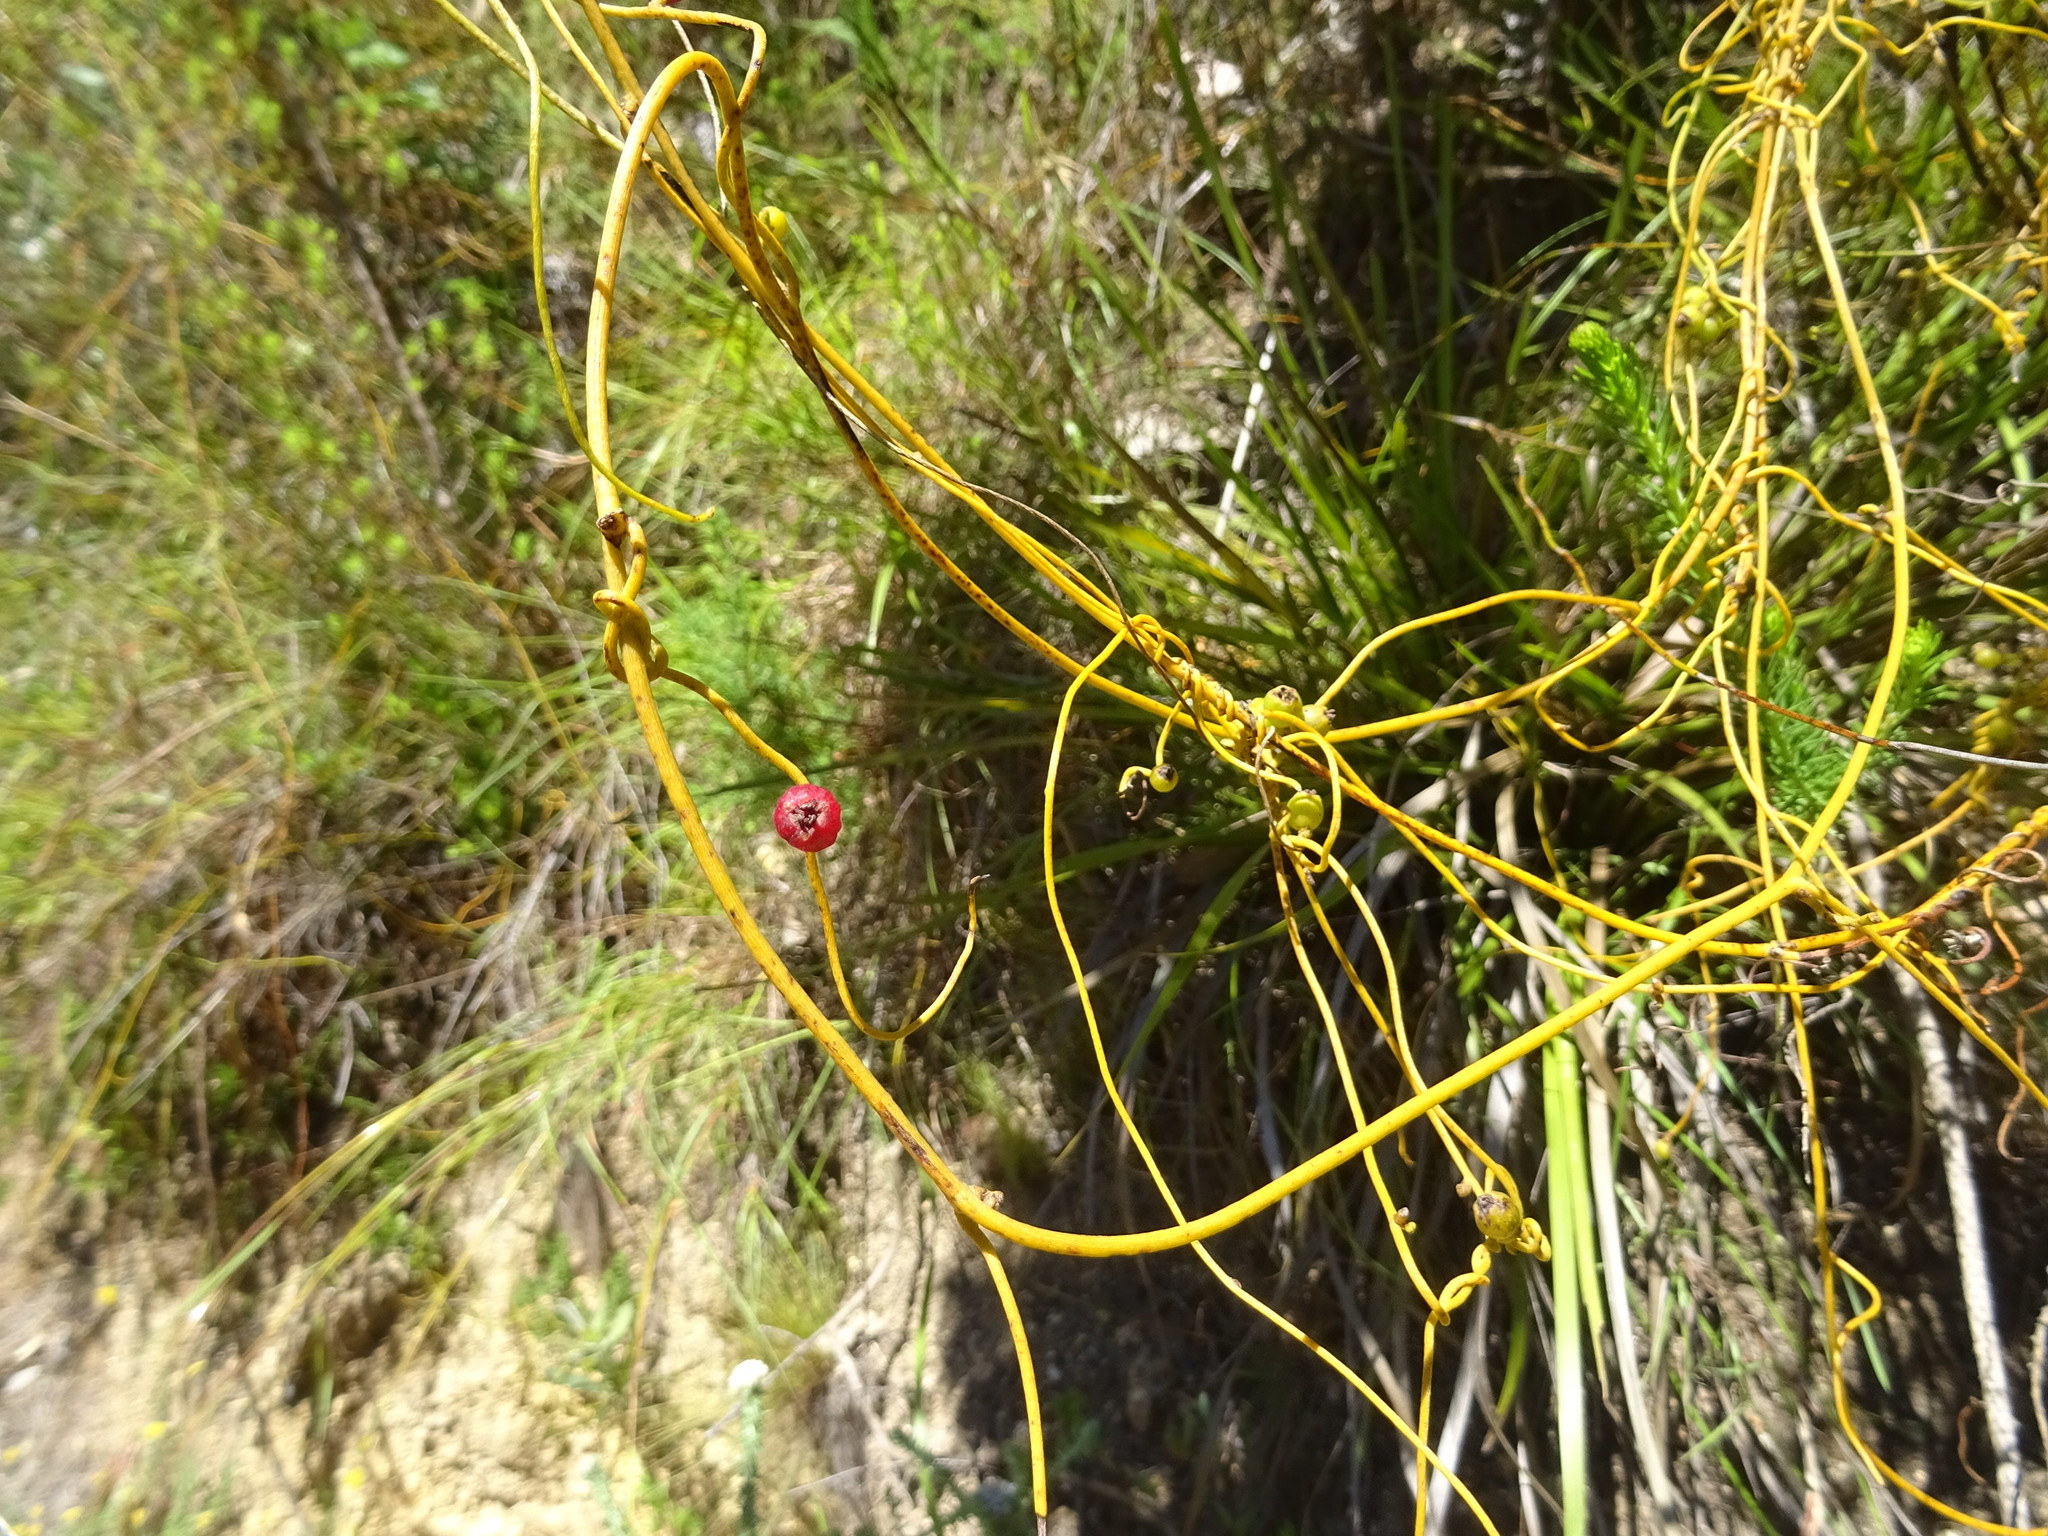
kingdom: Plantae
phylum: Tracheophyta
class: Magnoliopsida
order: Laurales
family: Lauraceae
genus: Cassytha
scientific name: Cassytha ciliolata
